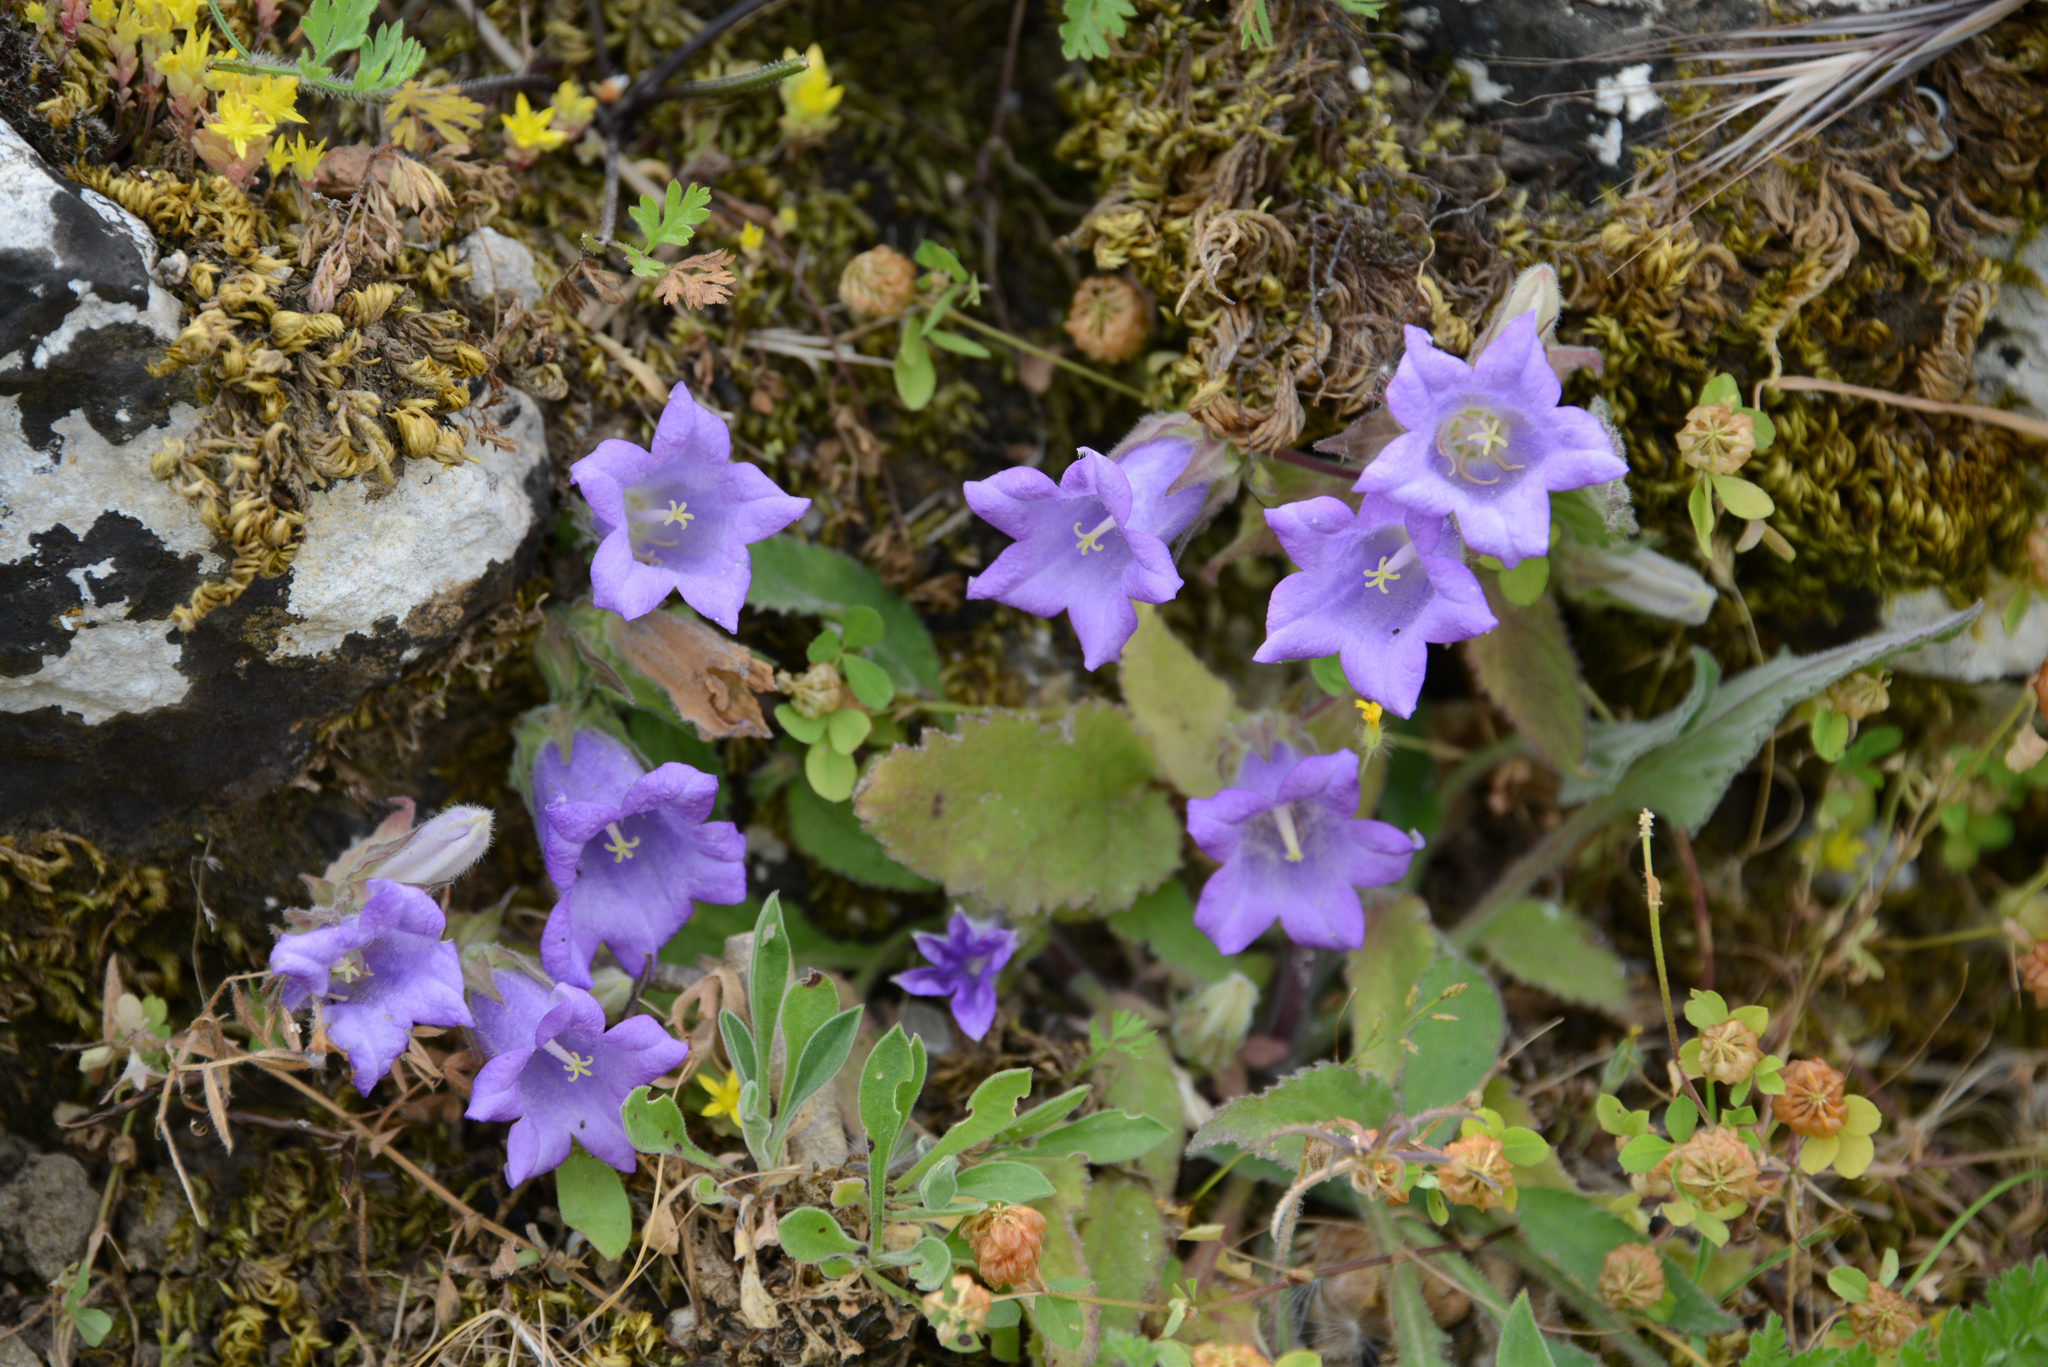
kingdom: Plantae
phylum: Tracheophyta
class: Magnoliopsida
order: Asterales
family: Campanulaceae
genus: Campanula
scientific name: Campanula tubulosa
